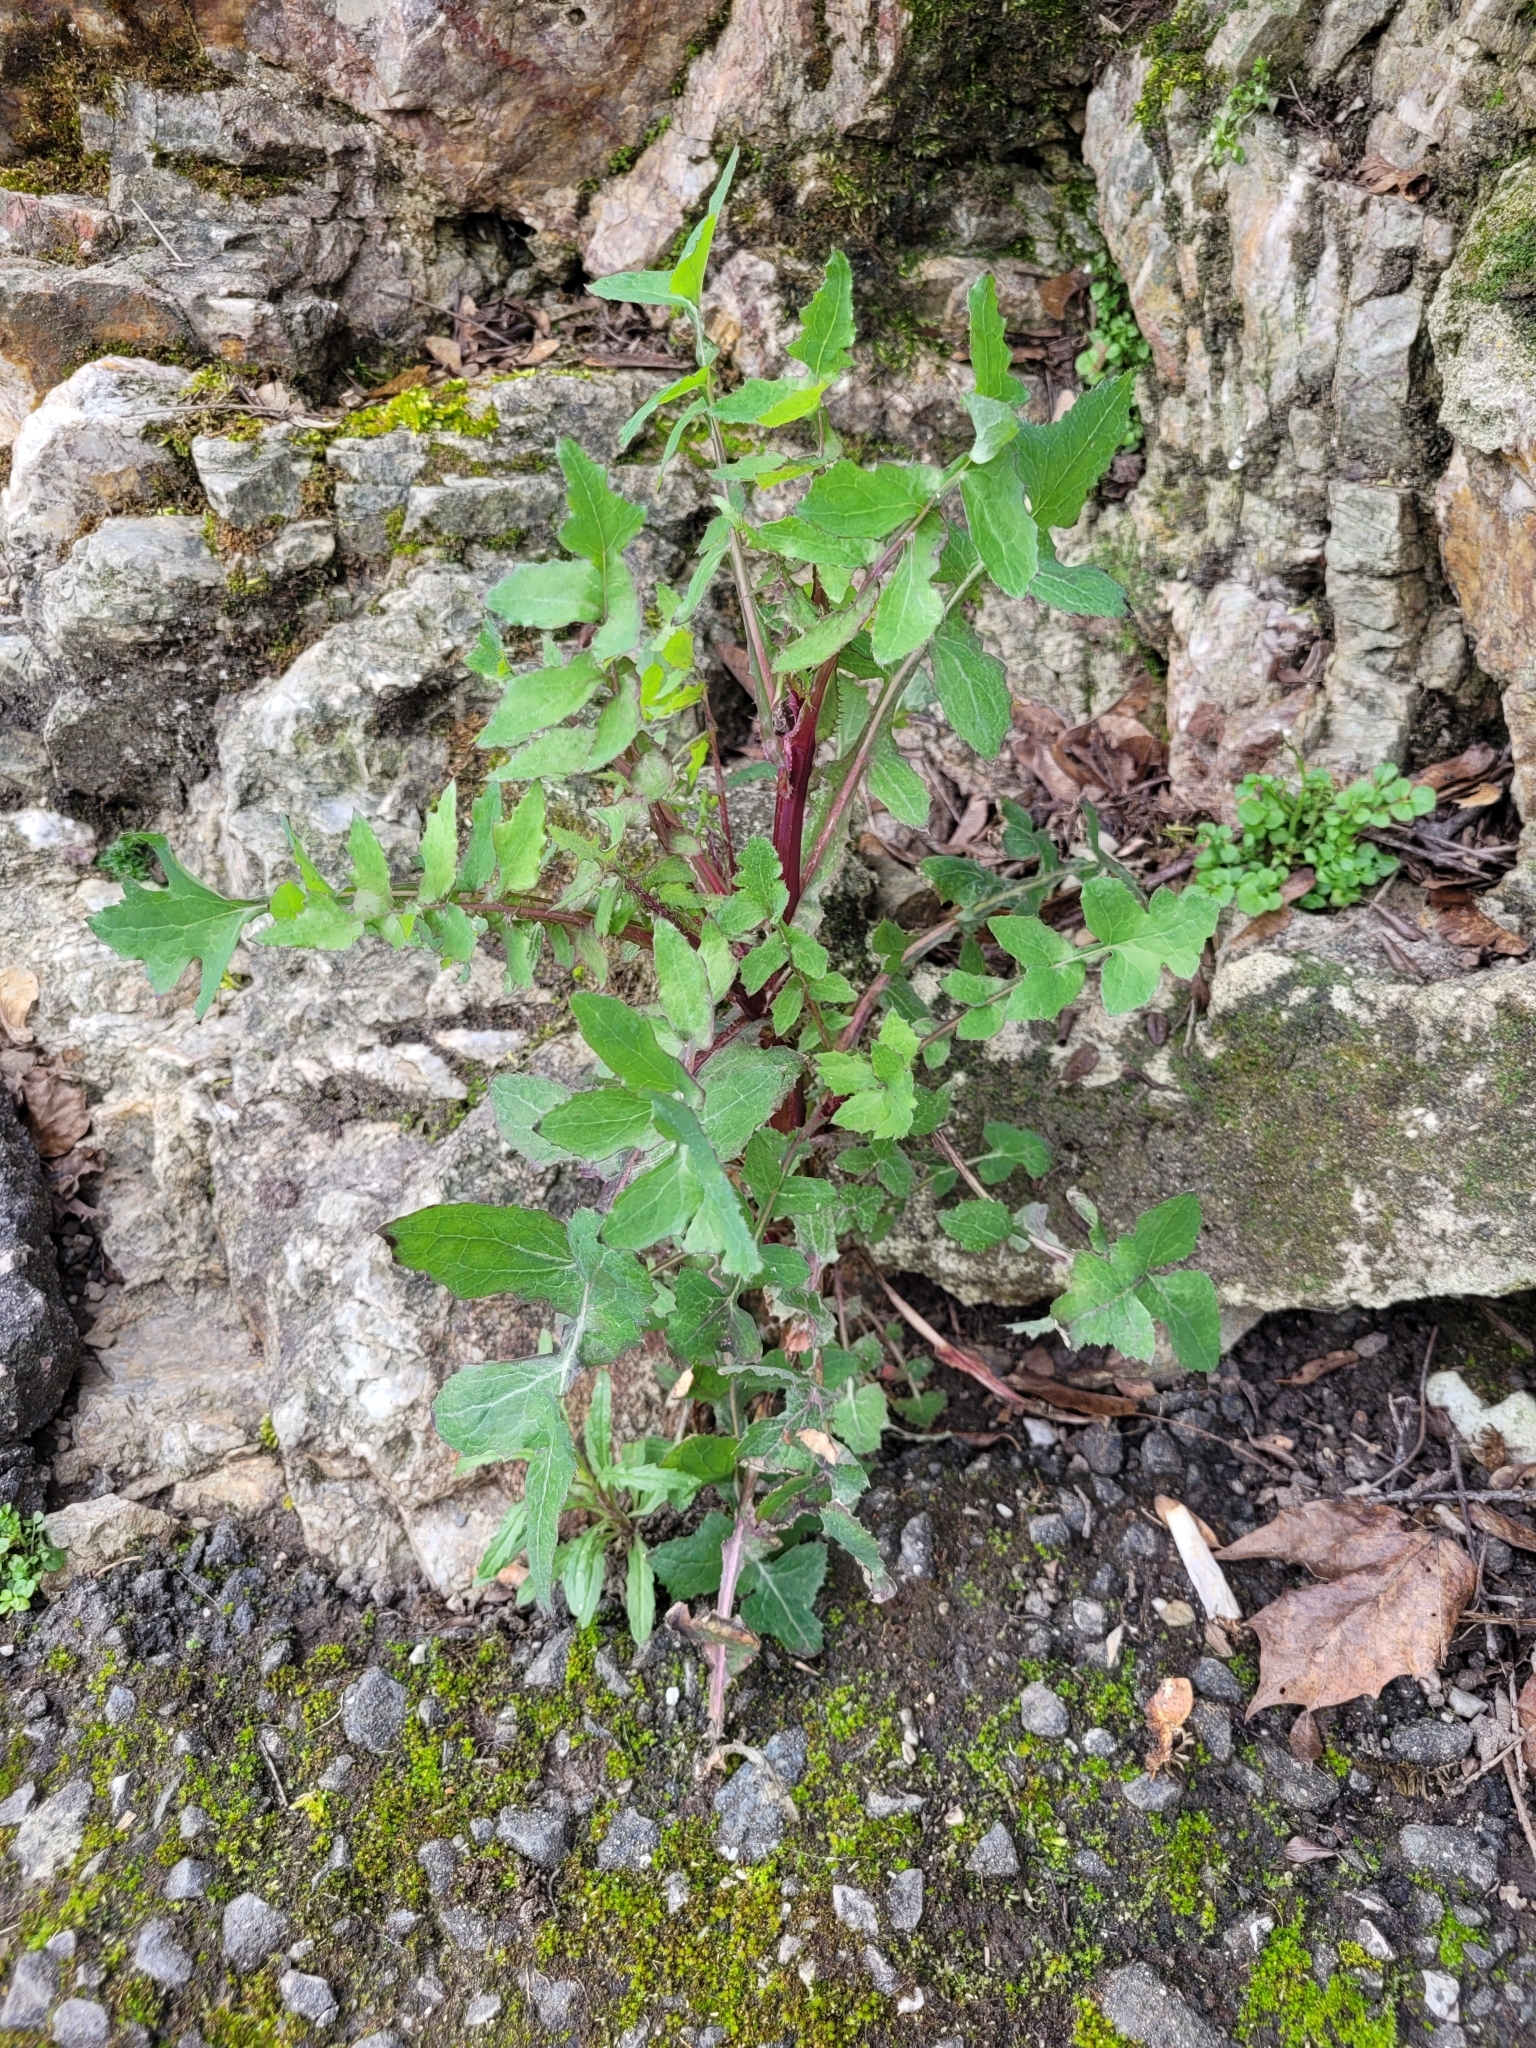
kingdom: Plantae
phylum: Tracheophyta
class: Magnoliopsida
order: Asterales
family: Asteraceae
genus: Sonchus
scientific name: Sonchus oleraceus
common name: Common sowthistle
